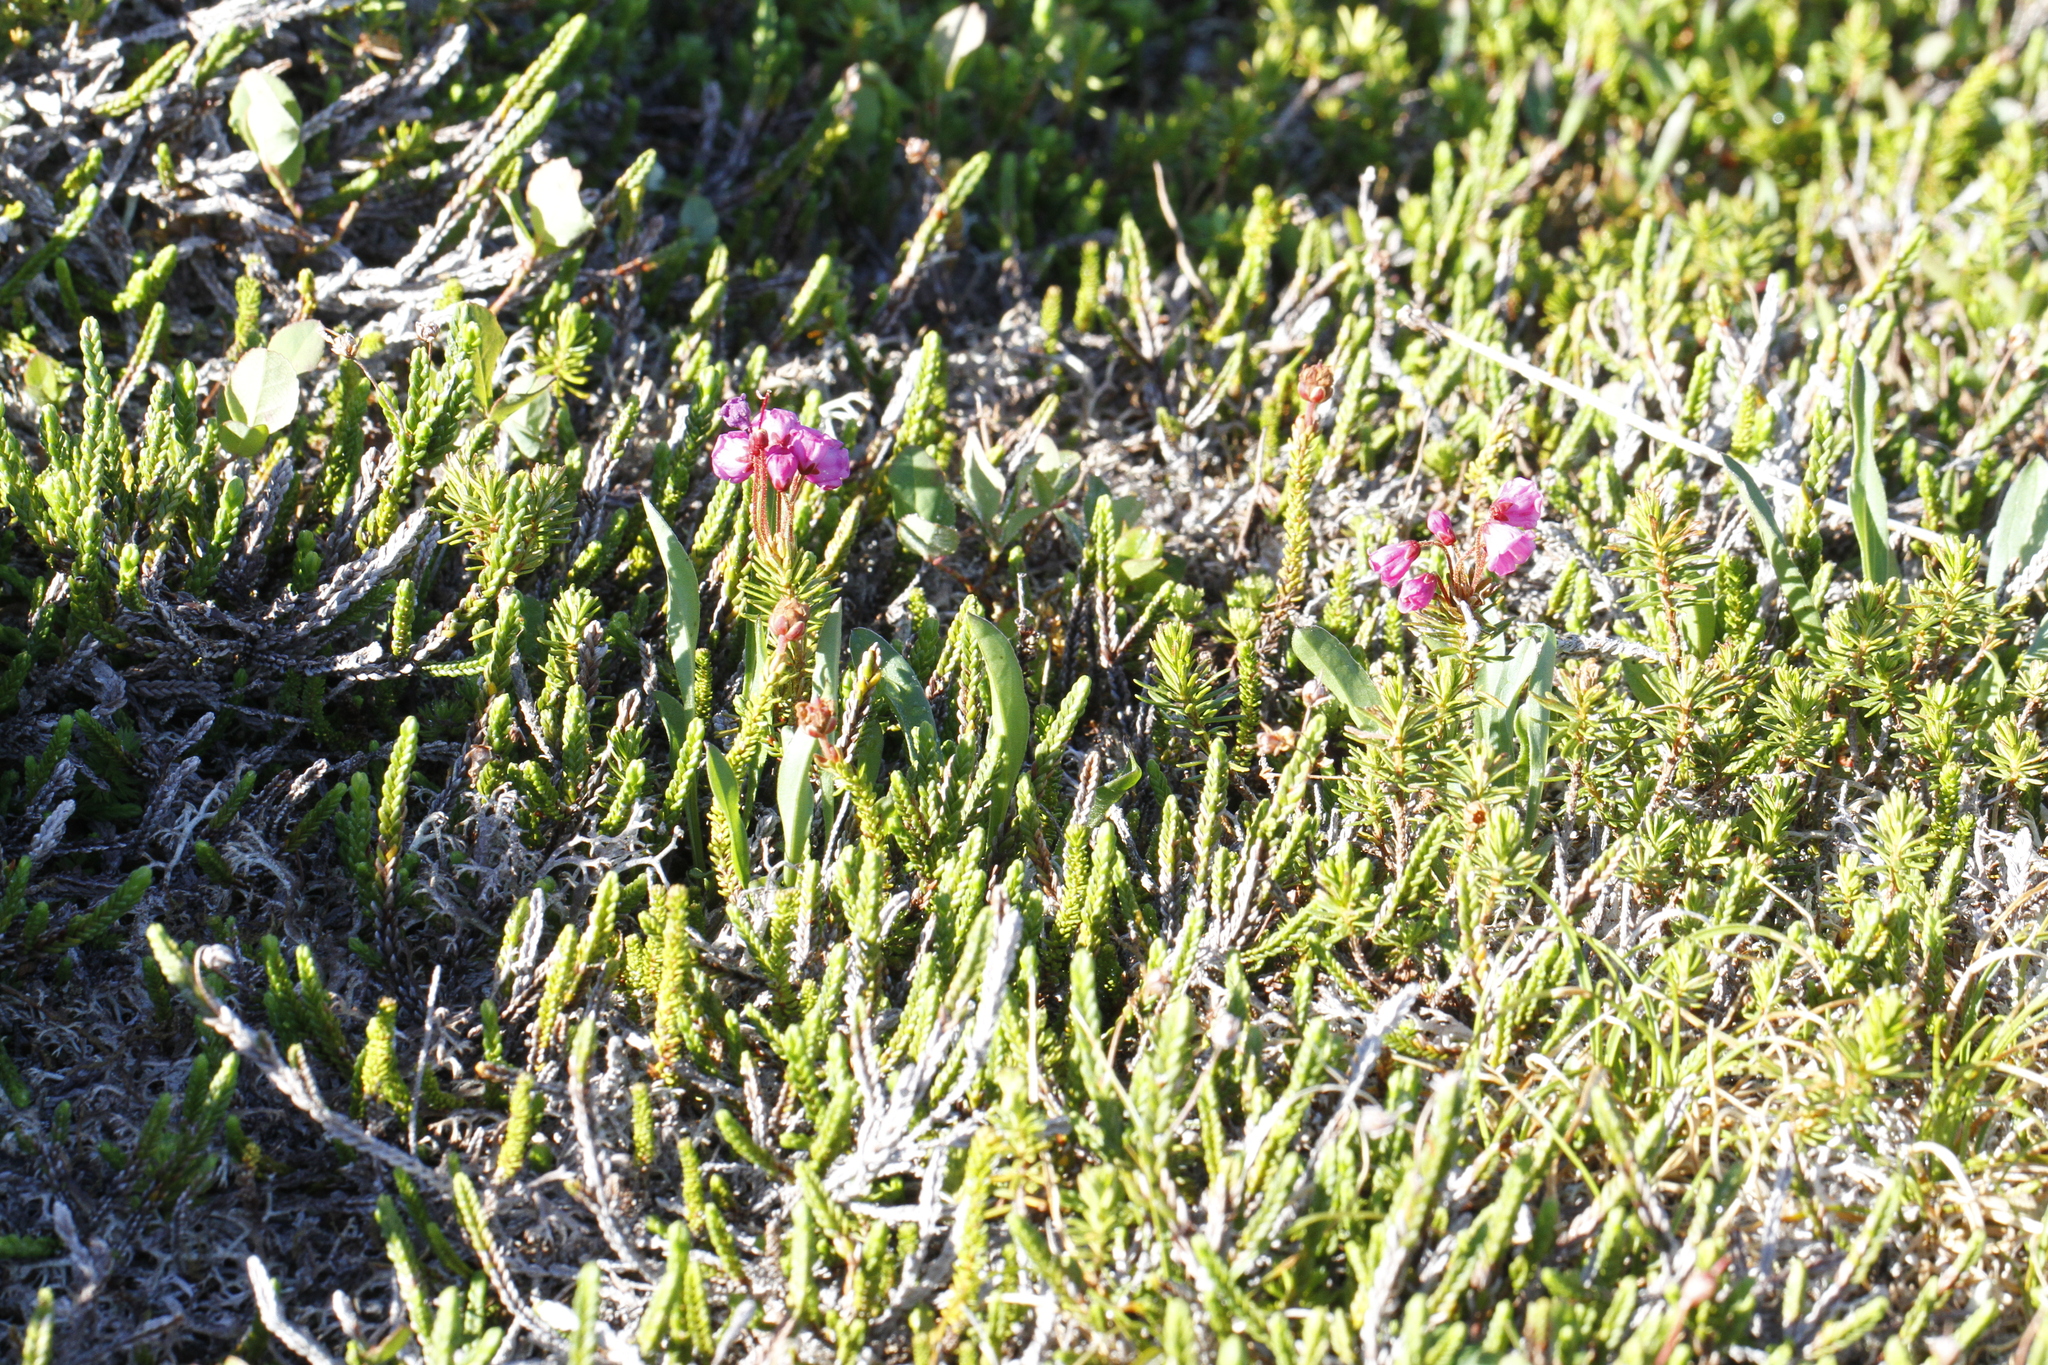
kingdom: Plantae
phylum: Tracheophyta
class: Magnoliopsida
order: Ericales
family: Ericaceae
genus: Phyllodoce
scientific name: Phyllodoce empetriformis
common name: Pink mountain heather
